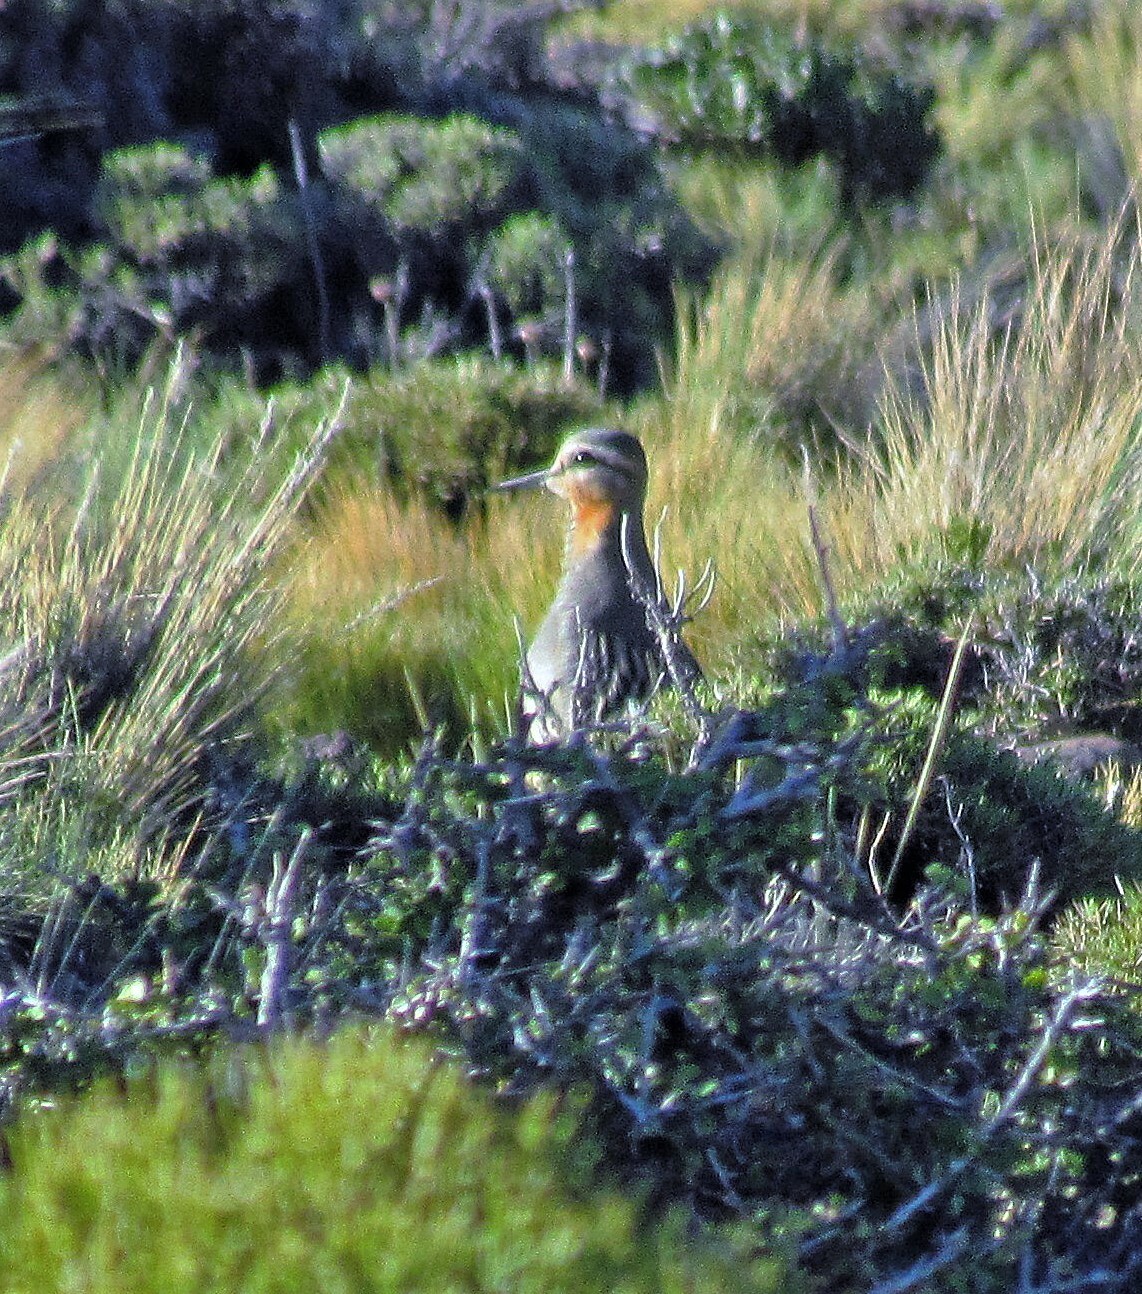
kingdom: Animalia
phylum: Chordata
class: Aves
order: Charadriiformes
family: Charadriidae
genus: Oreopholus
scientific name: Oreopholus ruficollis
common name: Tawny-throated dotterel
